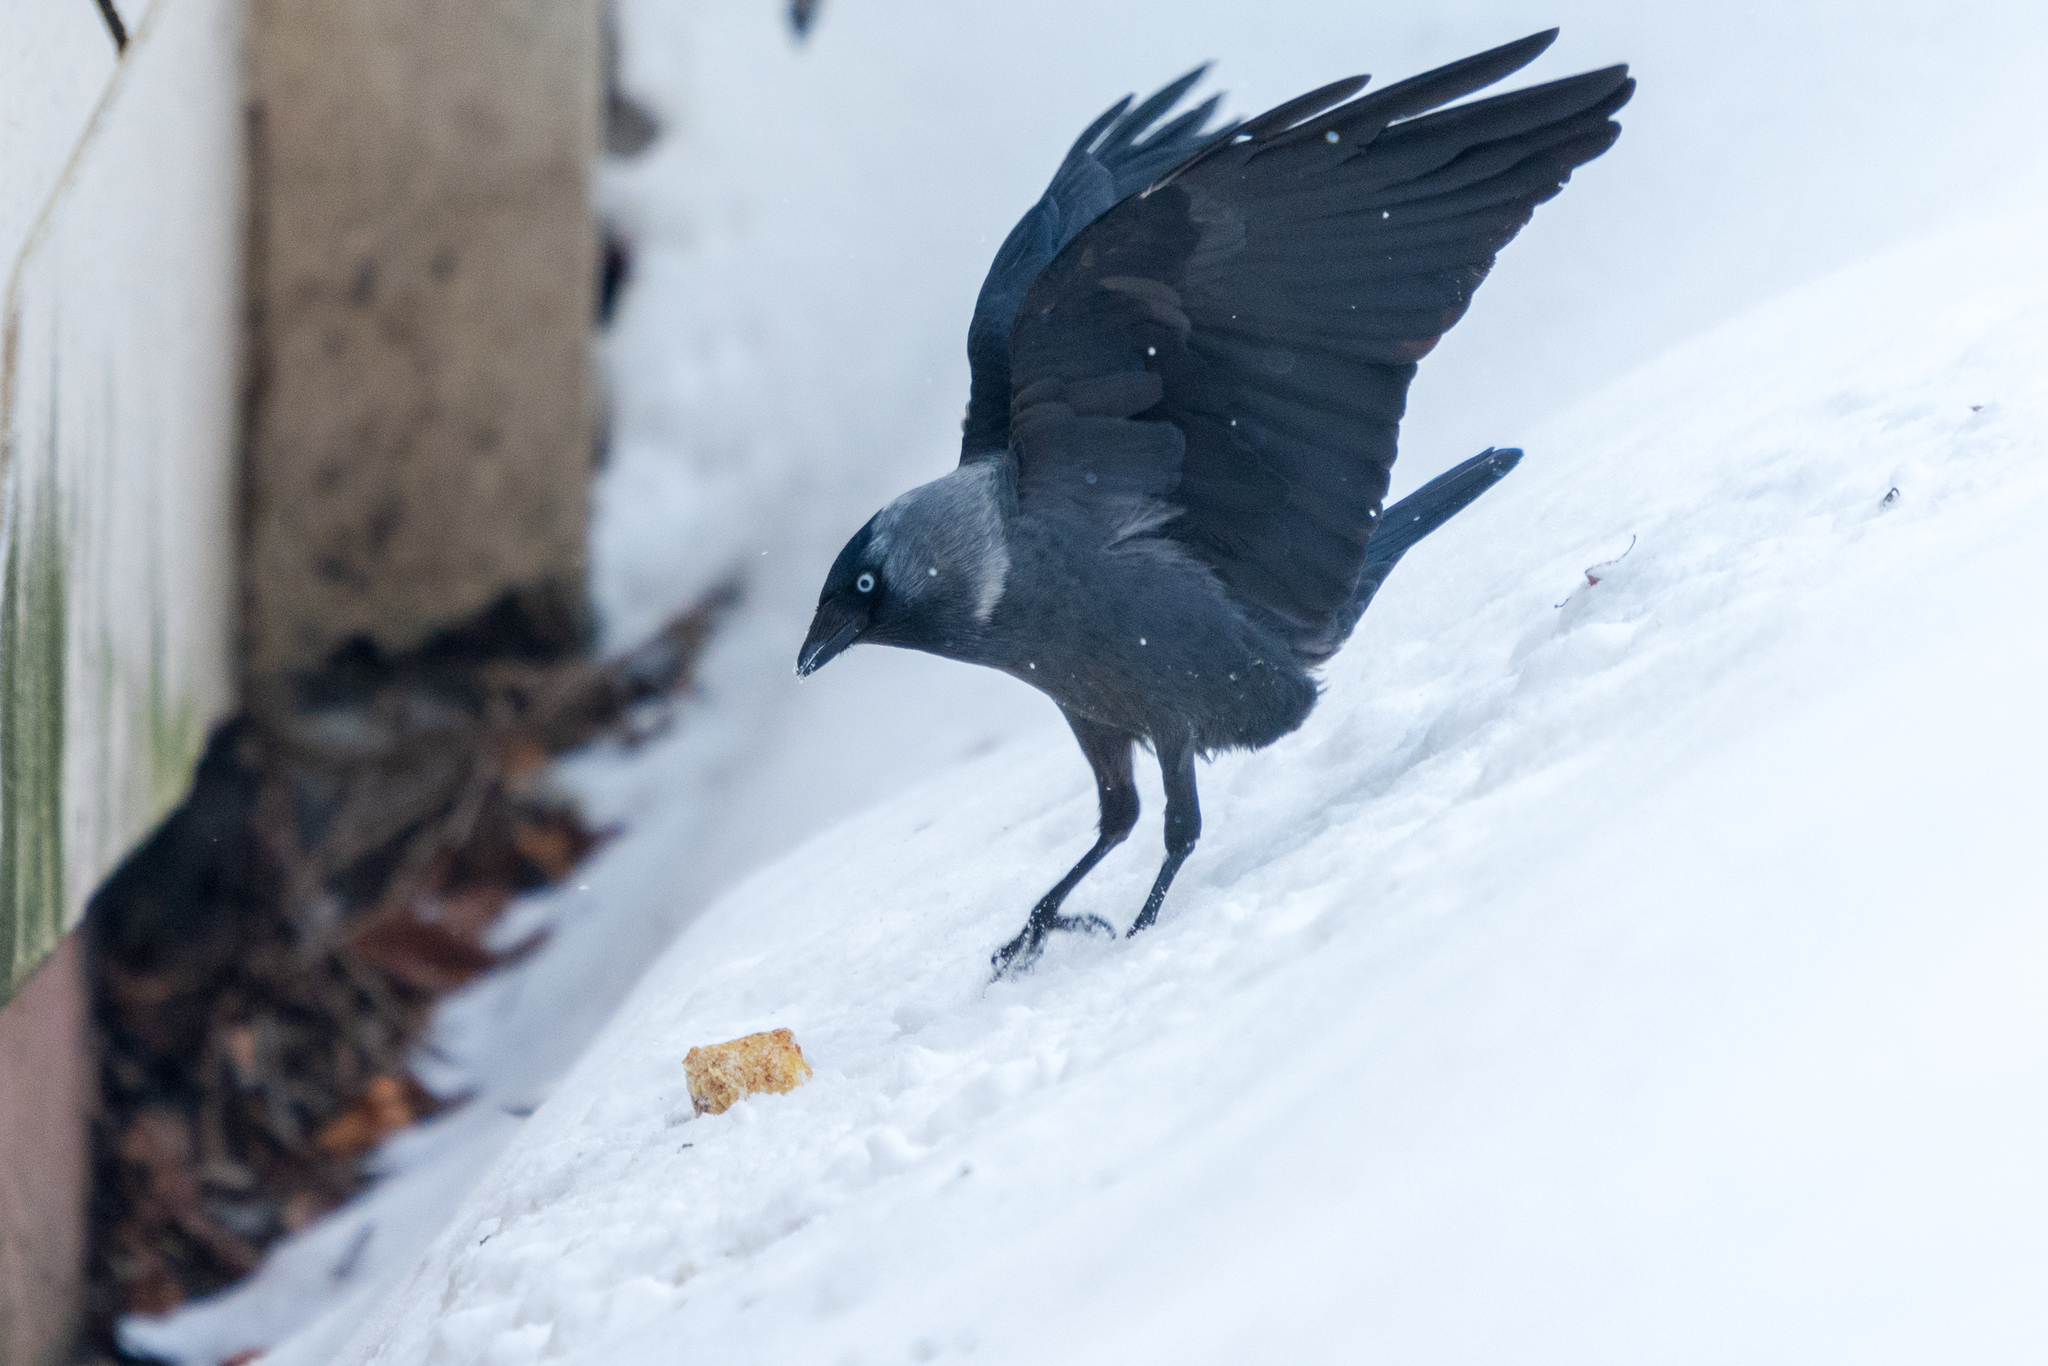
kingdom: Animalia
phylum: Chordata
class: Aves
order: Passeriformes
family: Corvidae
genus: Coloeus
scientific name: Coloeus monedula
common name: Western jackdaw
